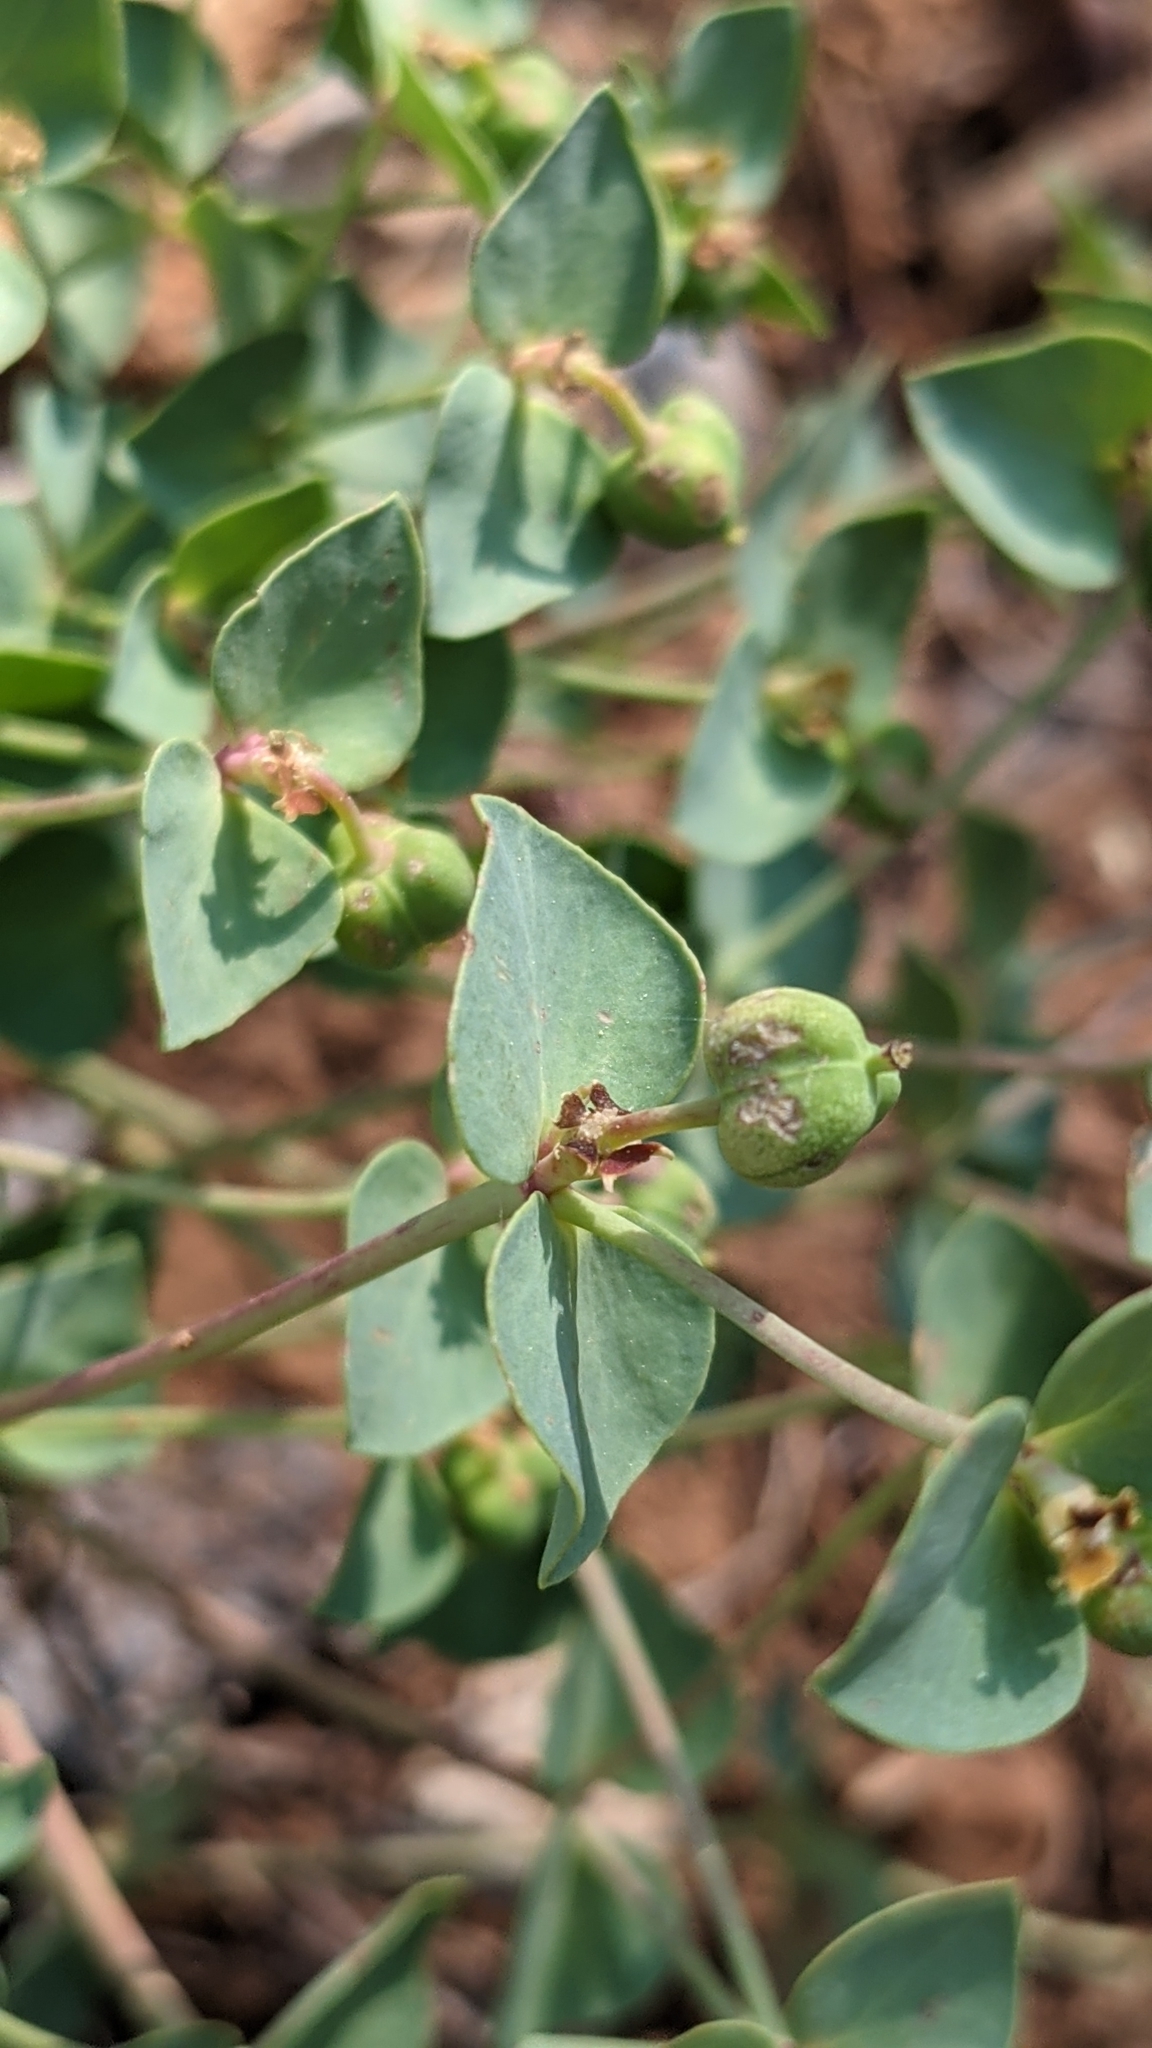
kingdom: Plantae
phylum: Tracheophyta
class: Magnoliopsida
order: Malpighiales
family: Euphorbiaceae
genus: Euphorbia
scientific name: Euphorbia brachycera
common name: Shorthorn spurge
